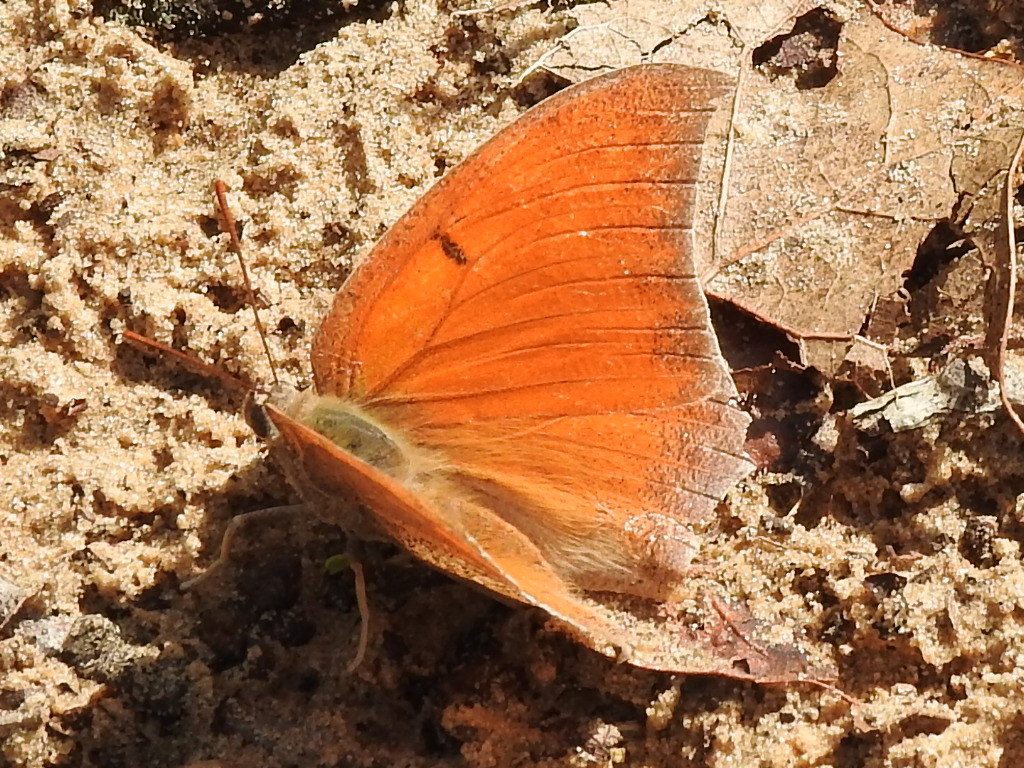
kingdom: Animalia
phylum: Arthropoda
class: Insecta
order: Lepidoptera
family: Nymphalidae
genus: Anaea
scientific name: Anaea andria
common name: Goatweed leafwing
